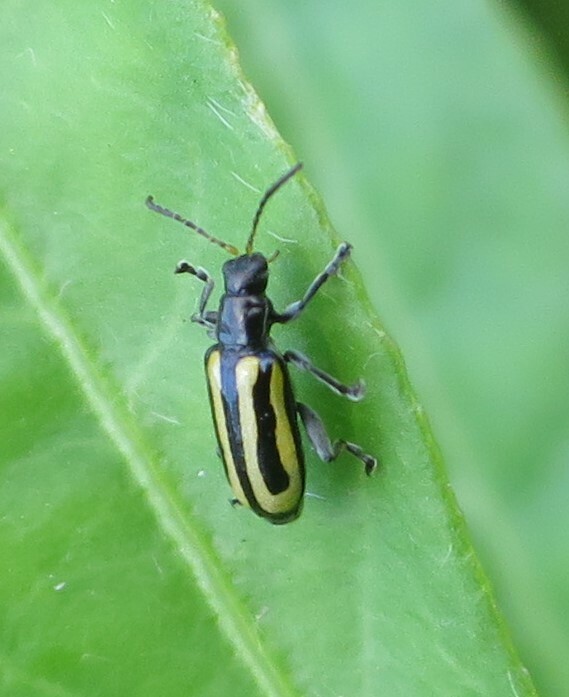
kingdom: Animalia
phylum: Arthropoda
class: Insecta
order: Coleoptera
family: Chrysomelidae
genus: Agasicles
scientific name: Agasicles hygrophila
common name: Alligatorweed flea beetle
